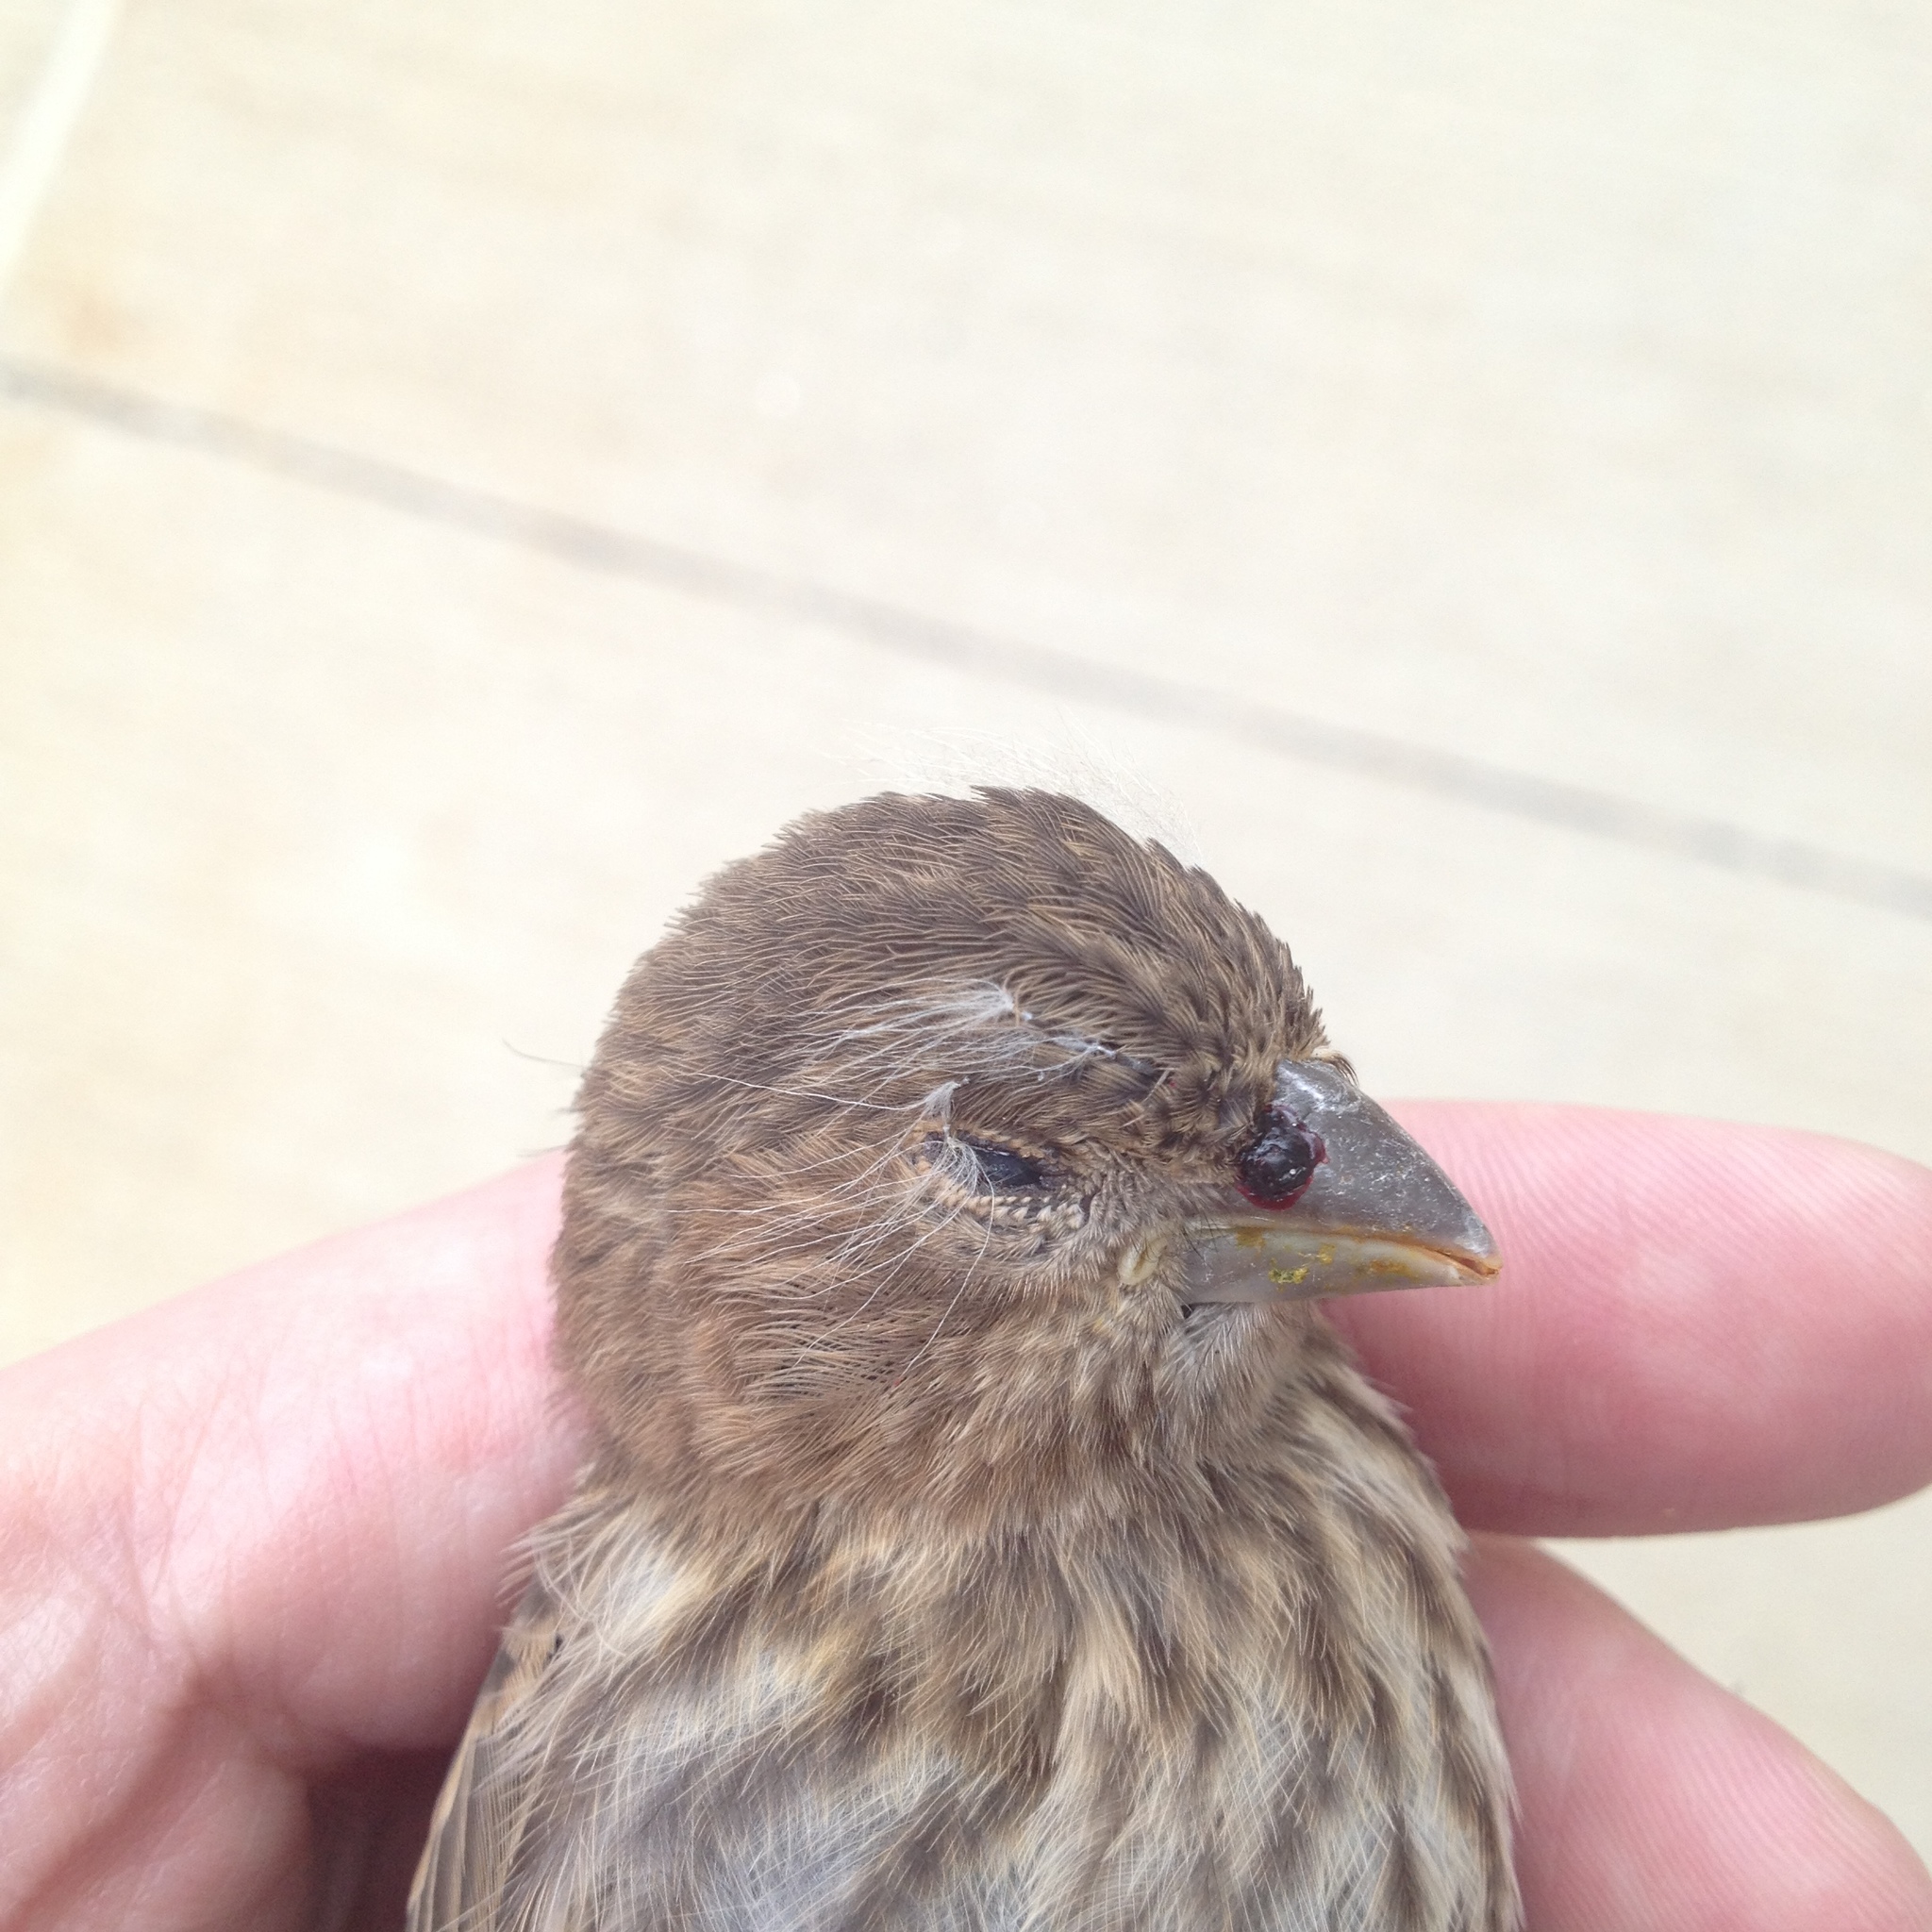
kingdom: Animalia
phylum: Chordata
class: Aves
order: Passeriformes
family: Fringillidae
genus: Haemorhous
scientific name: Haemorhous mexicanus
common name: House finch
